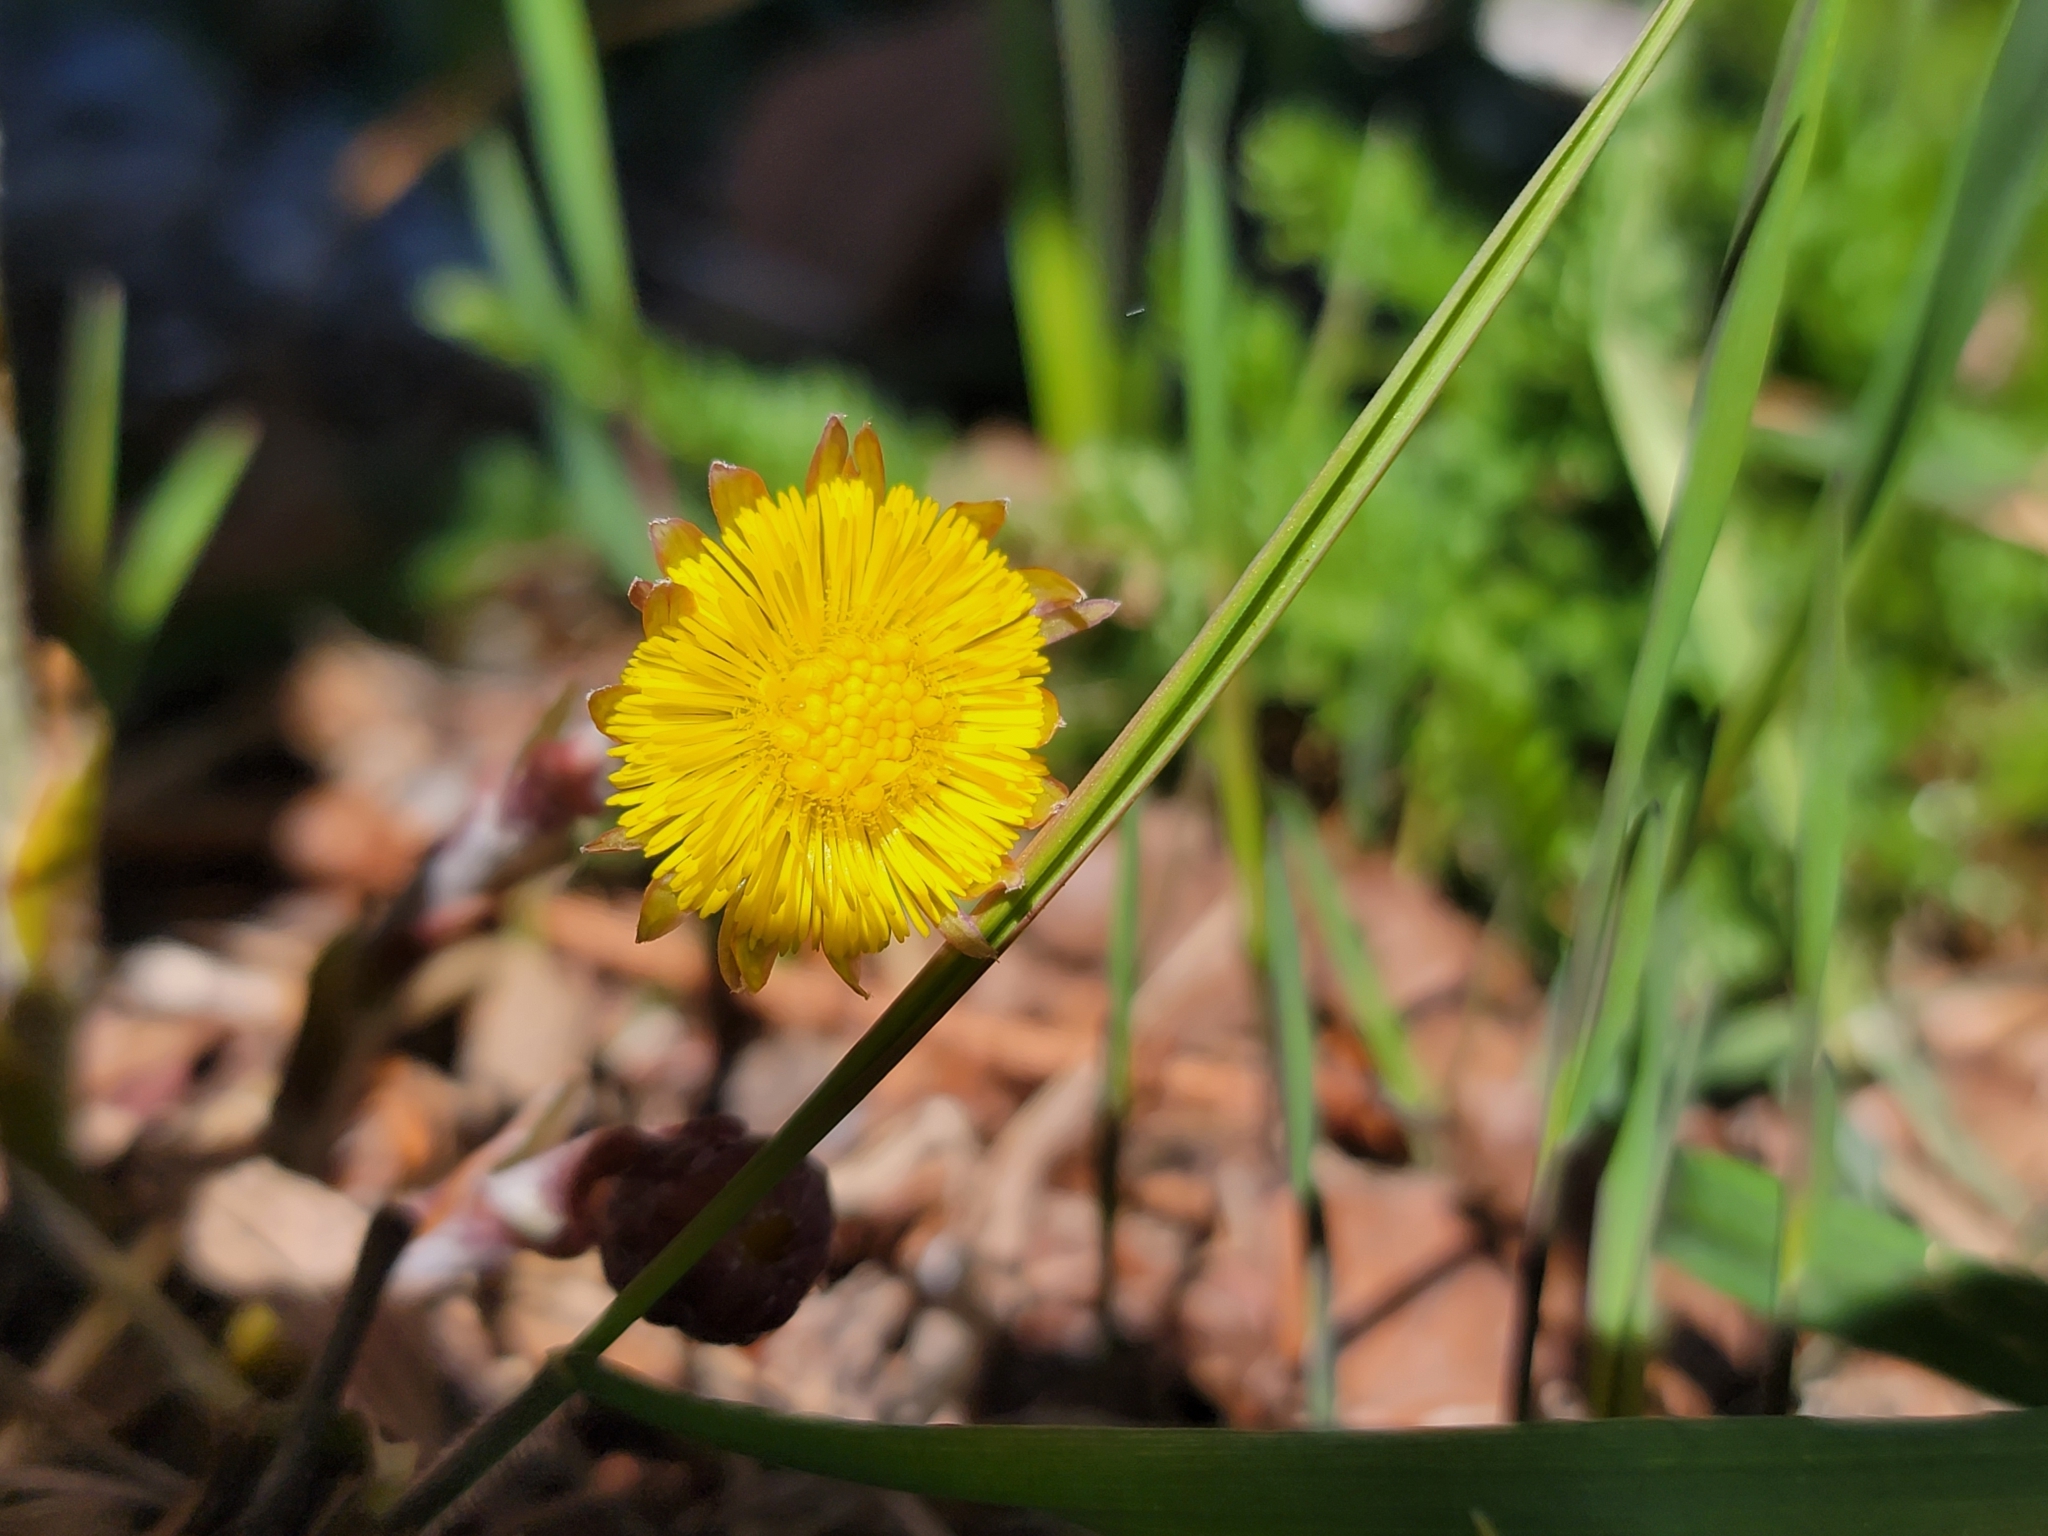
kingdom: Plantae
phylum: Tracheophyta
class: Magnoliopsida
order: Asterales
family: Asteraceae
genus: Tussilago
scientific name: Tussilago farfara
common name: Coltsfoot
